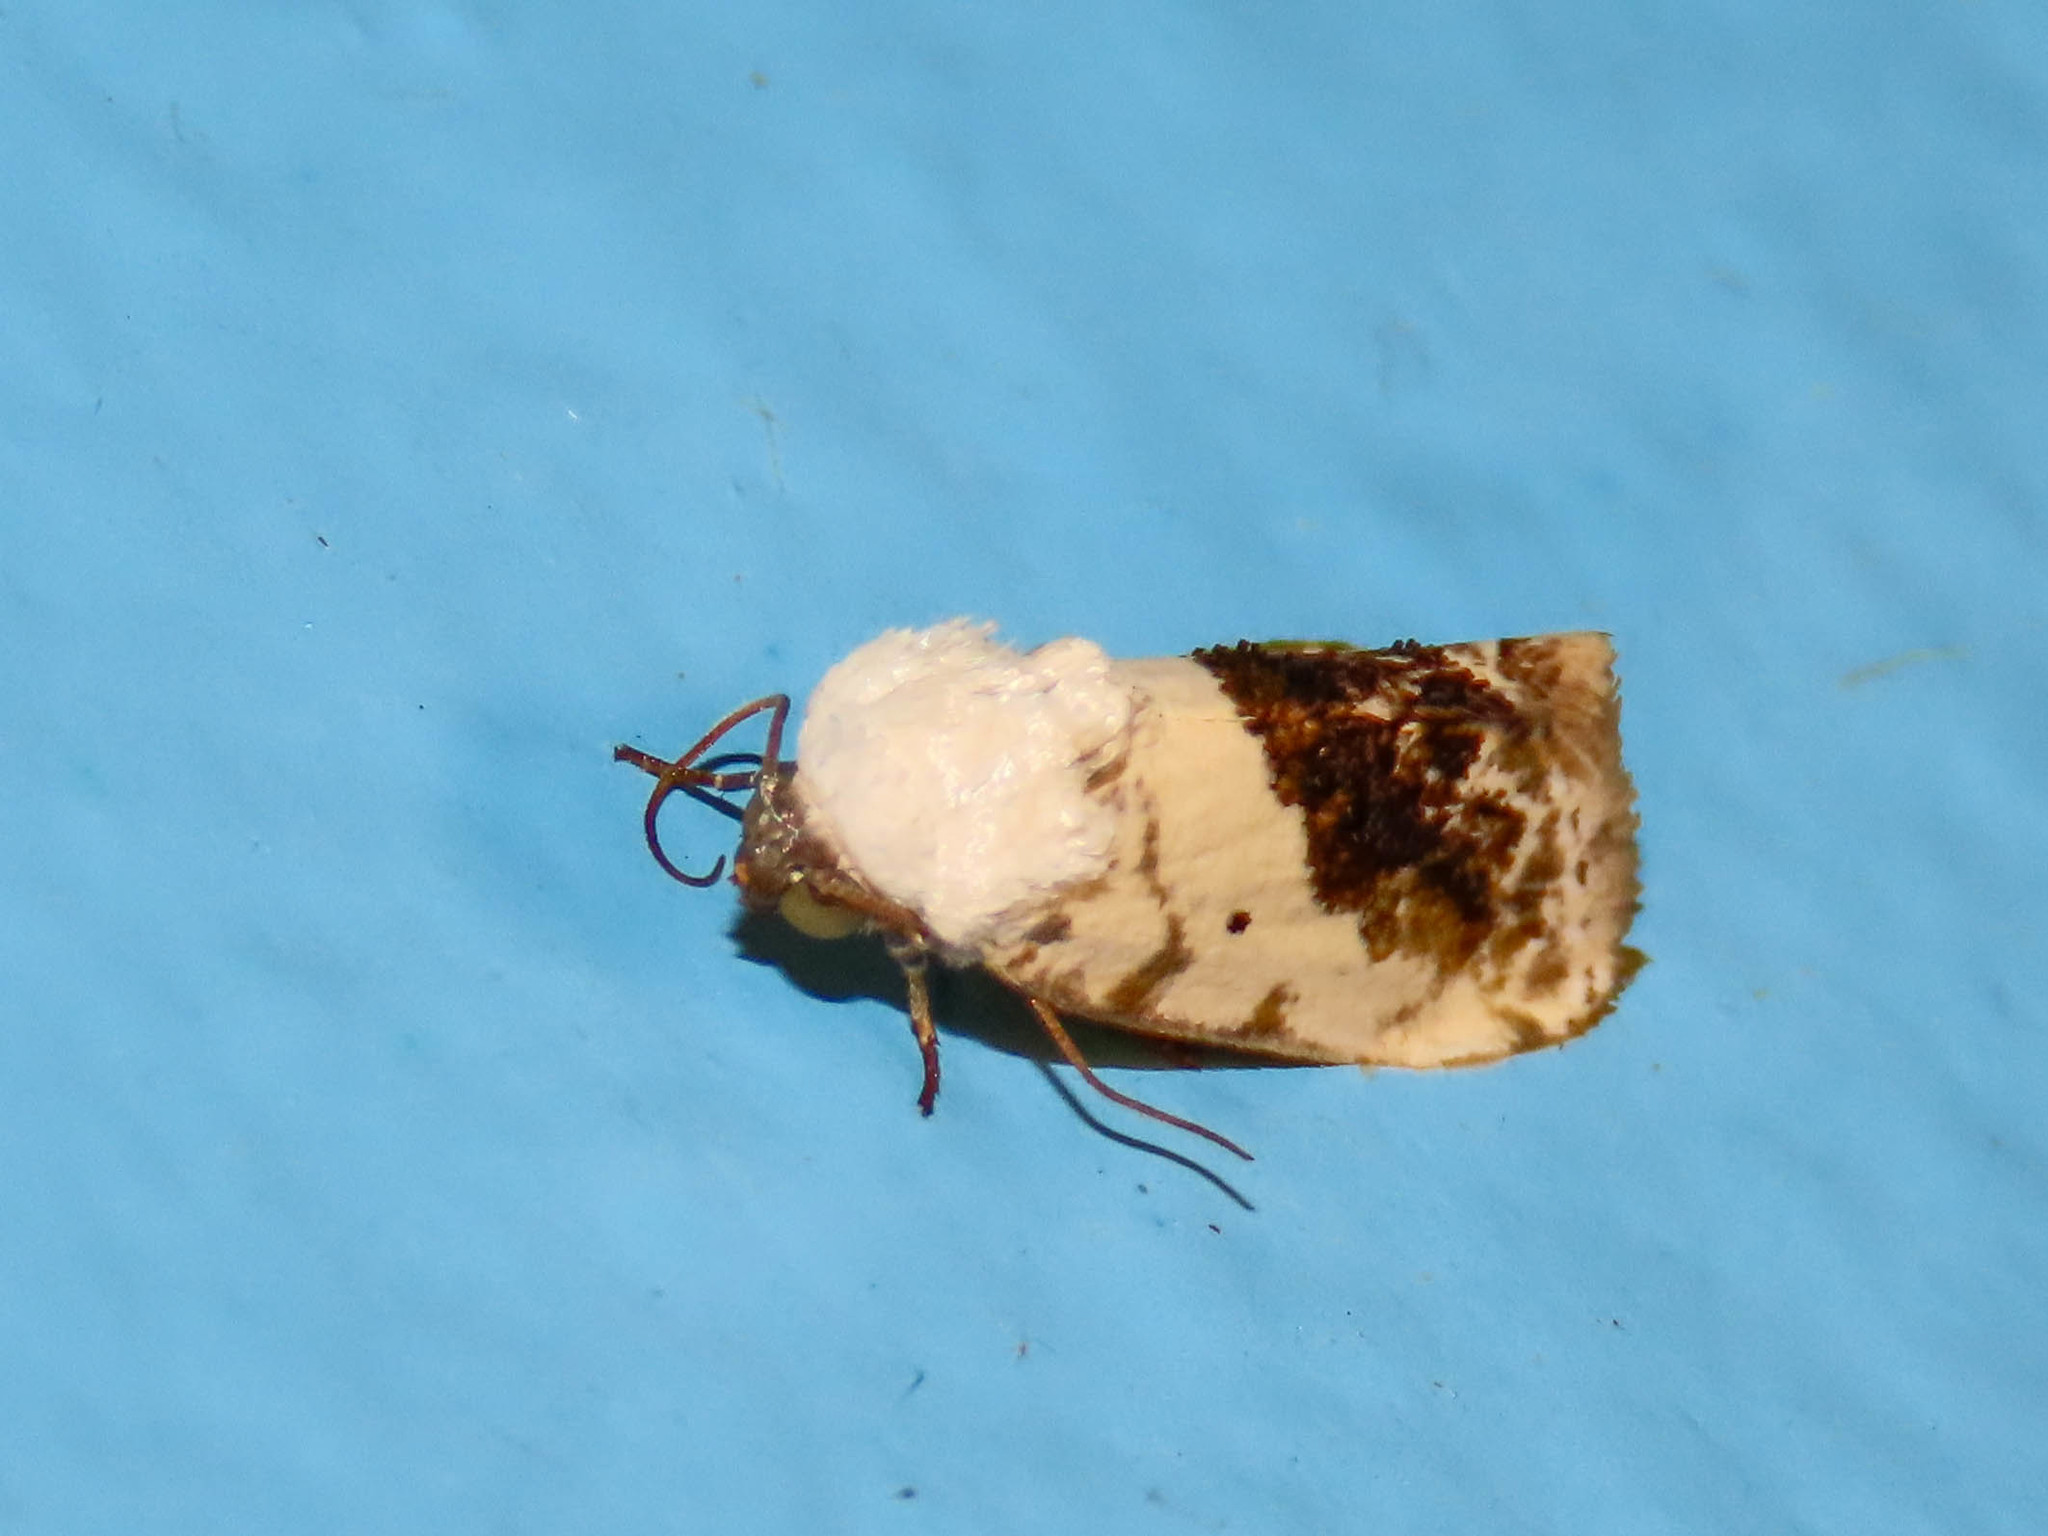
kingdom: Animalia
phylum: Arthropoda
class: Insecta
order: Lepidoptera
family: Noctuidae
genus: Acontia
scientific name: Acontia erastrioides
